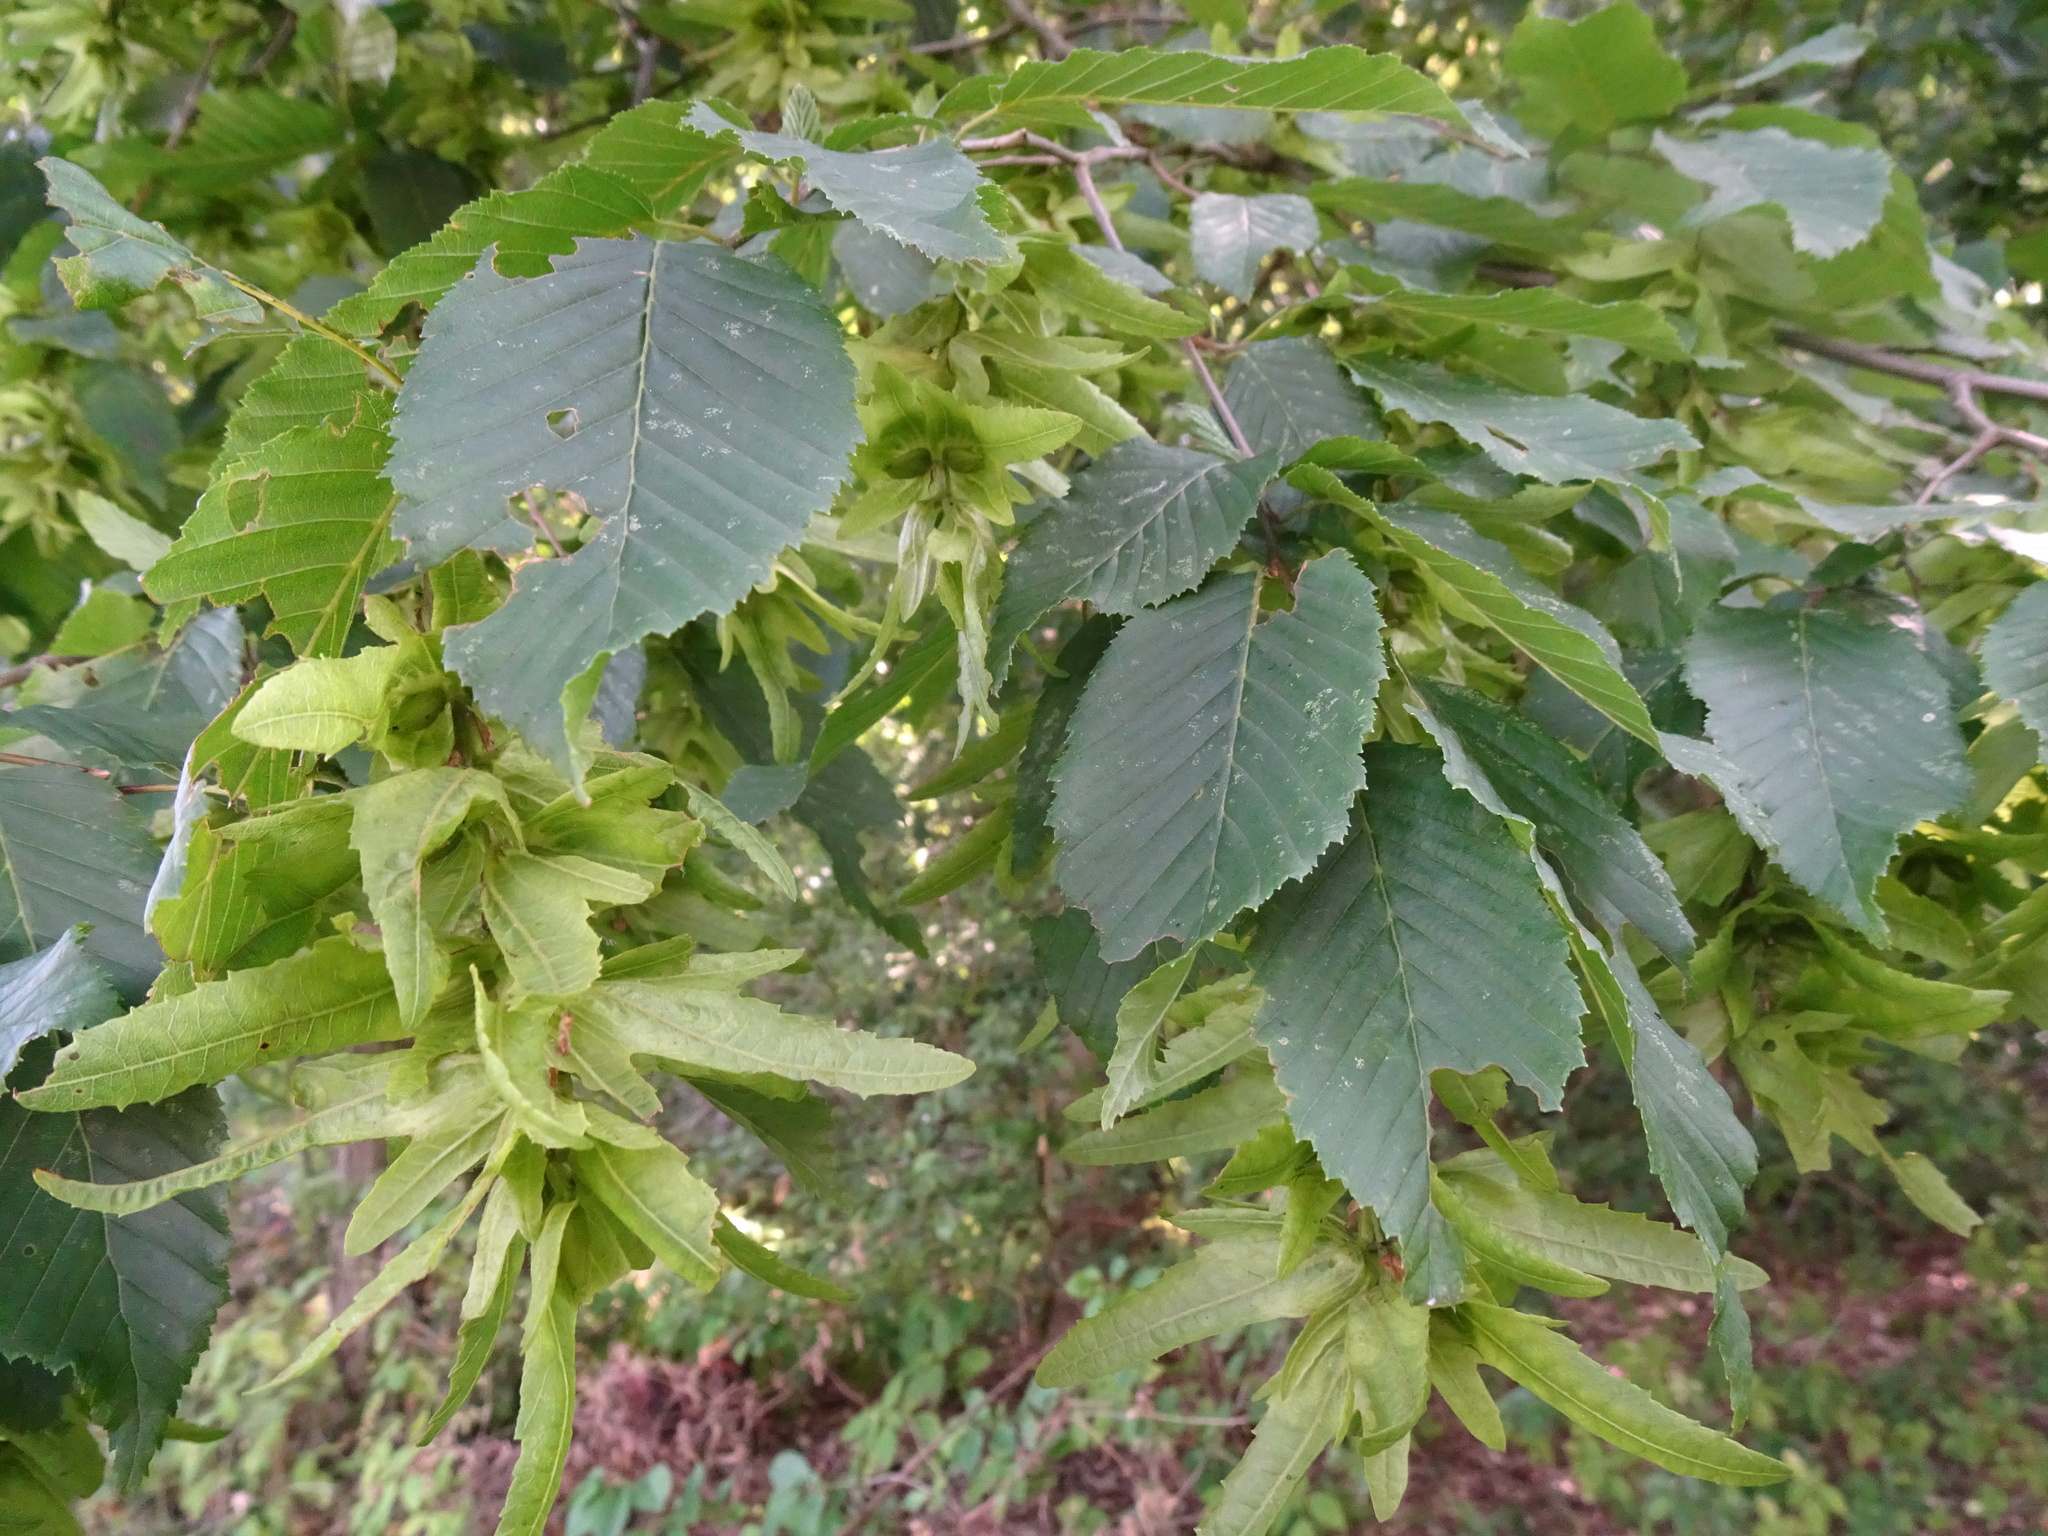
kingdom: Plantae
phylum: Tracheophyta
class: Magnoliopsida
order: Fagales
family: Betulaceae
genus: Carpinus
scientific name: Carpinus betulus
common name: Hornbeam
